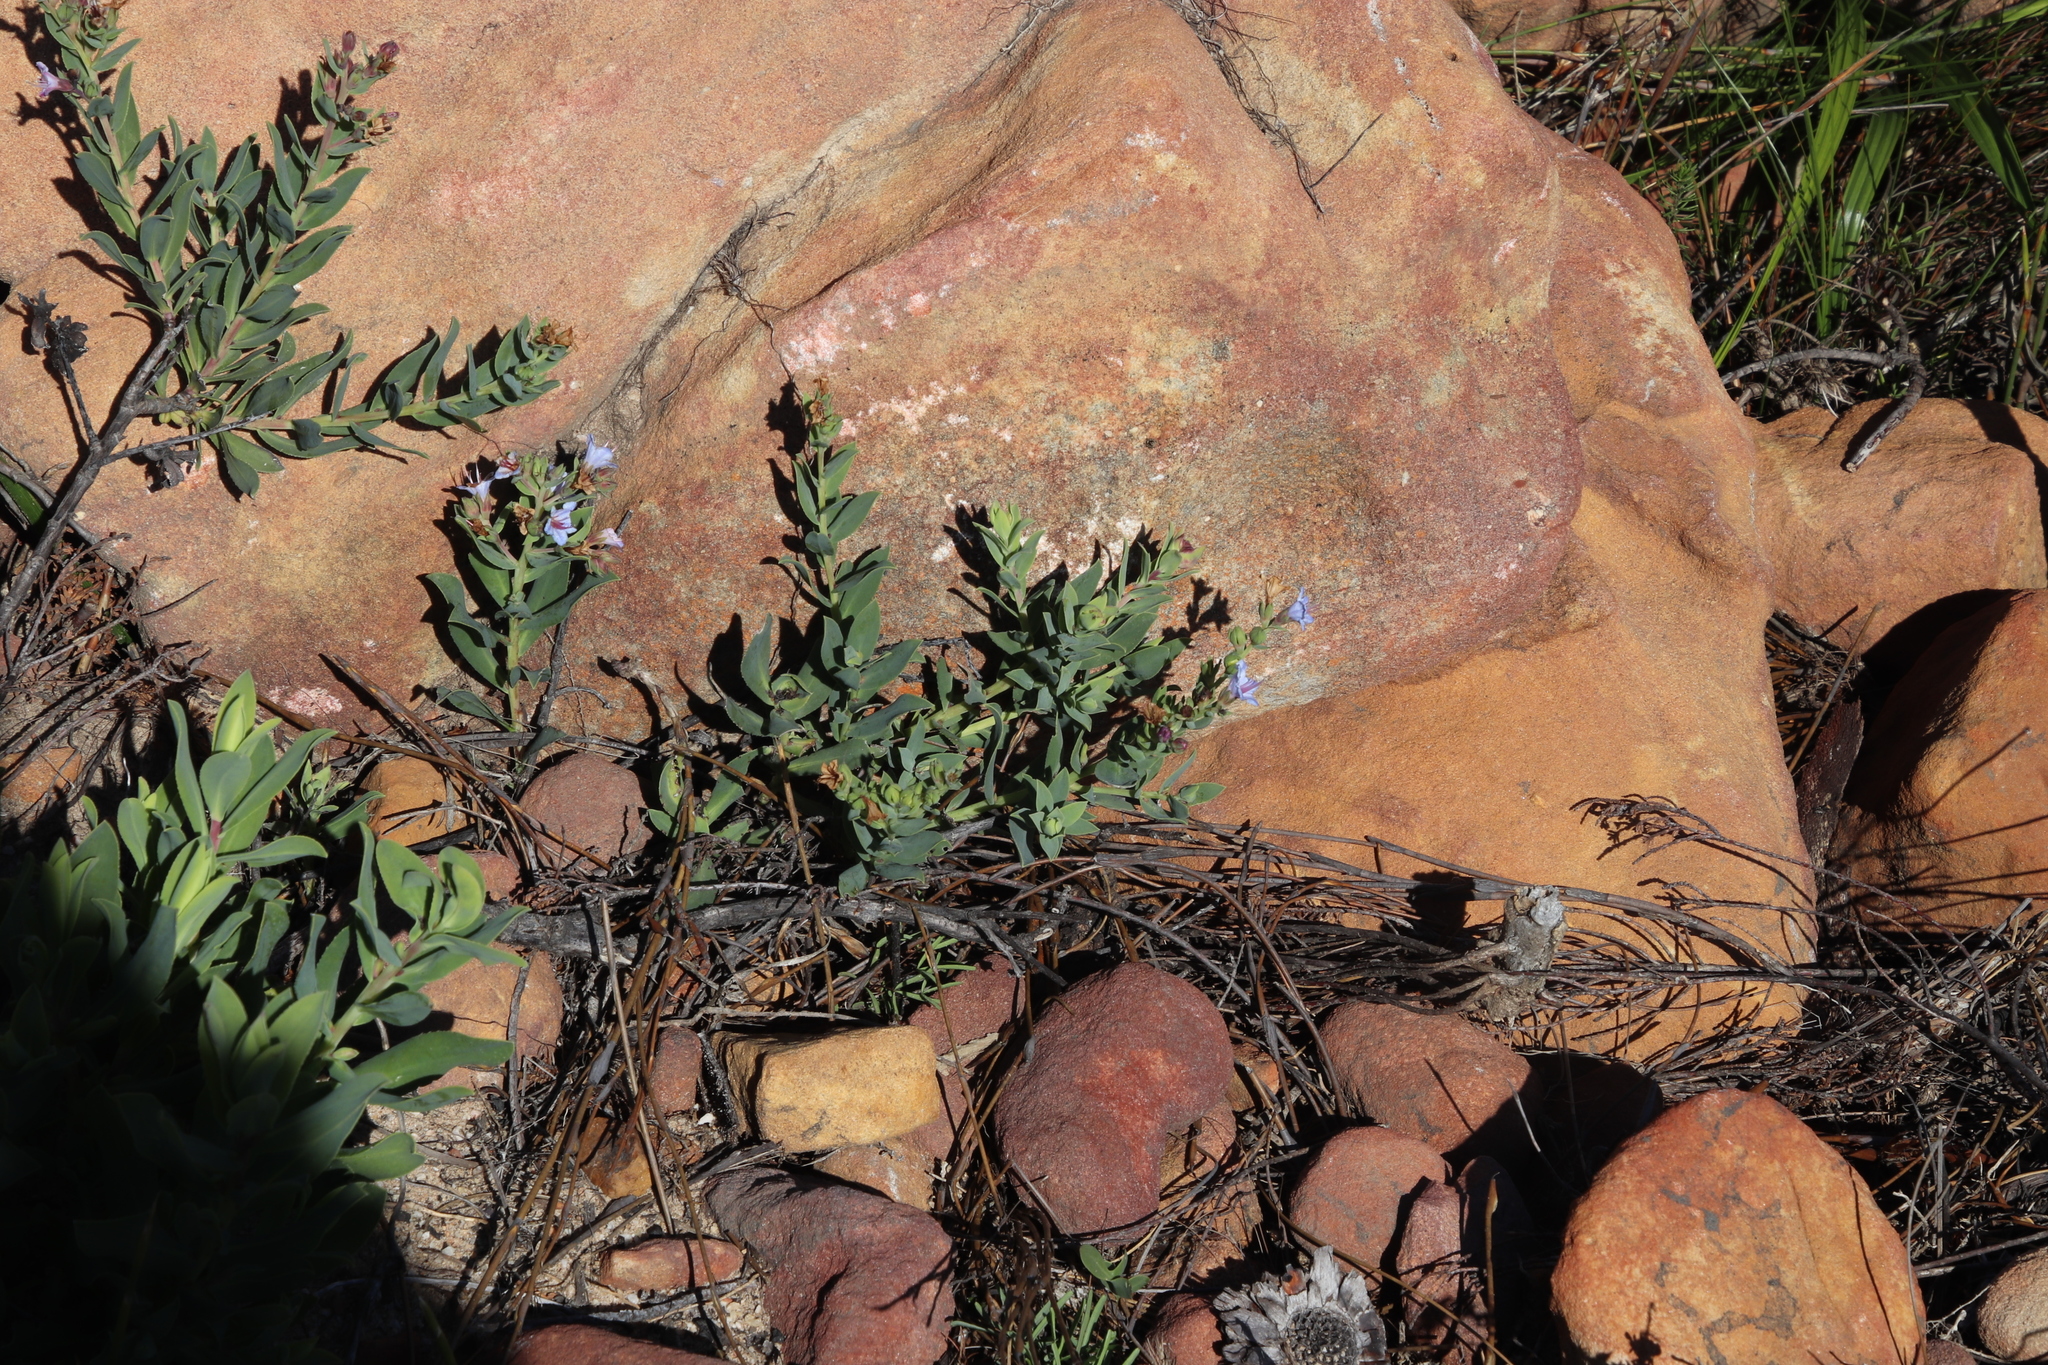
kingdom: Plantae
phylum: Tracheophyta
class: Magnoliopsida
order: Boraginales
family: Boraginaceae
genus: Lobostemon
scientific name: Lobostemon glaucophyllus
